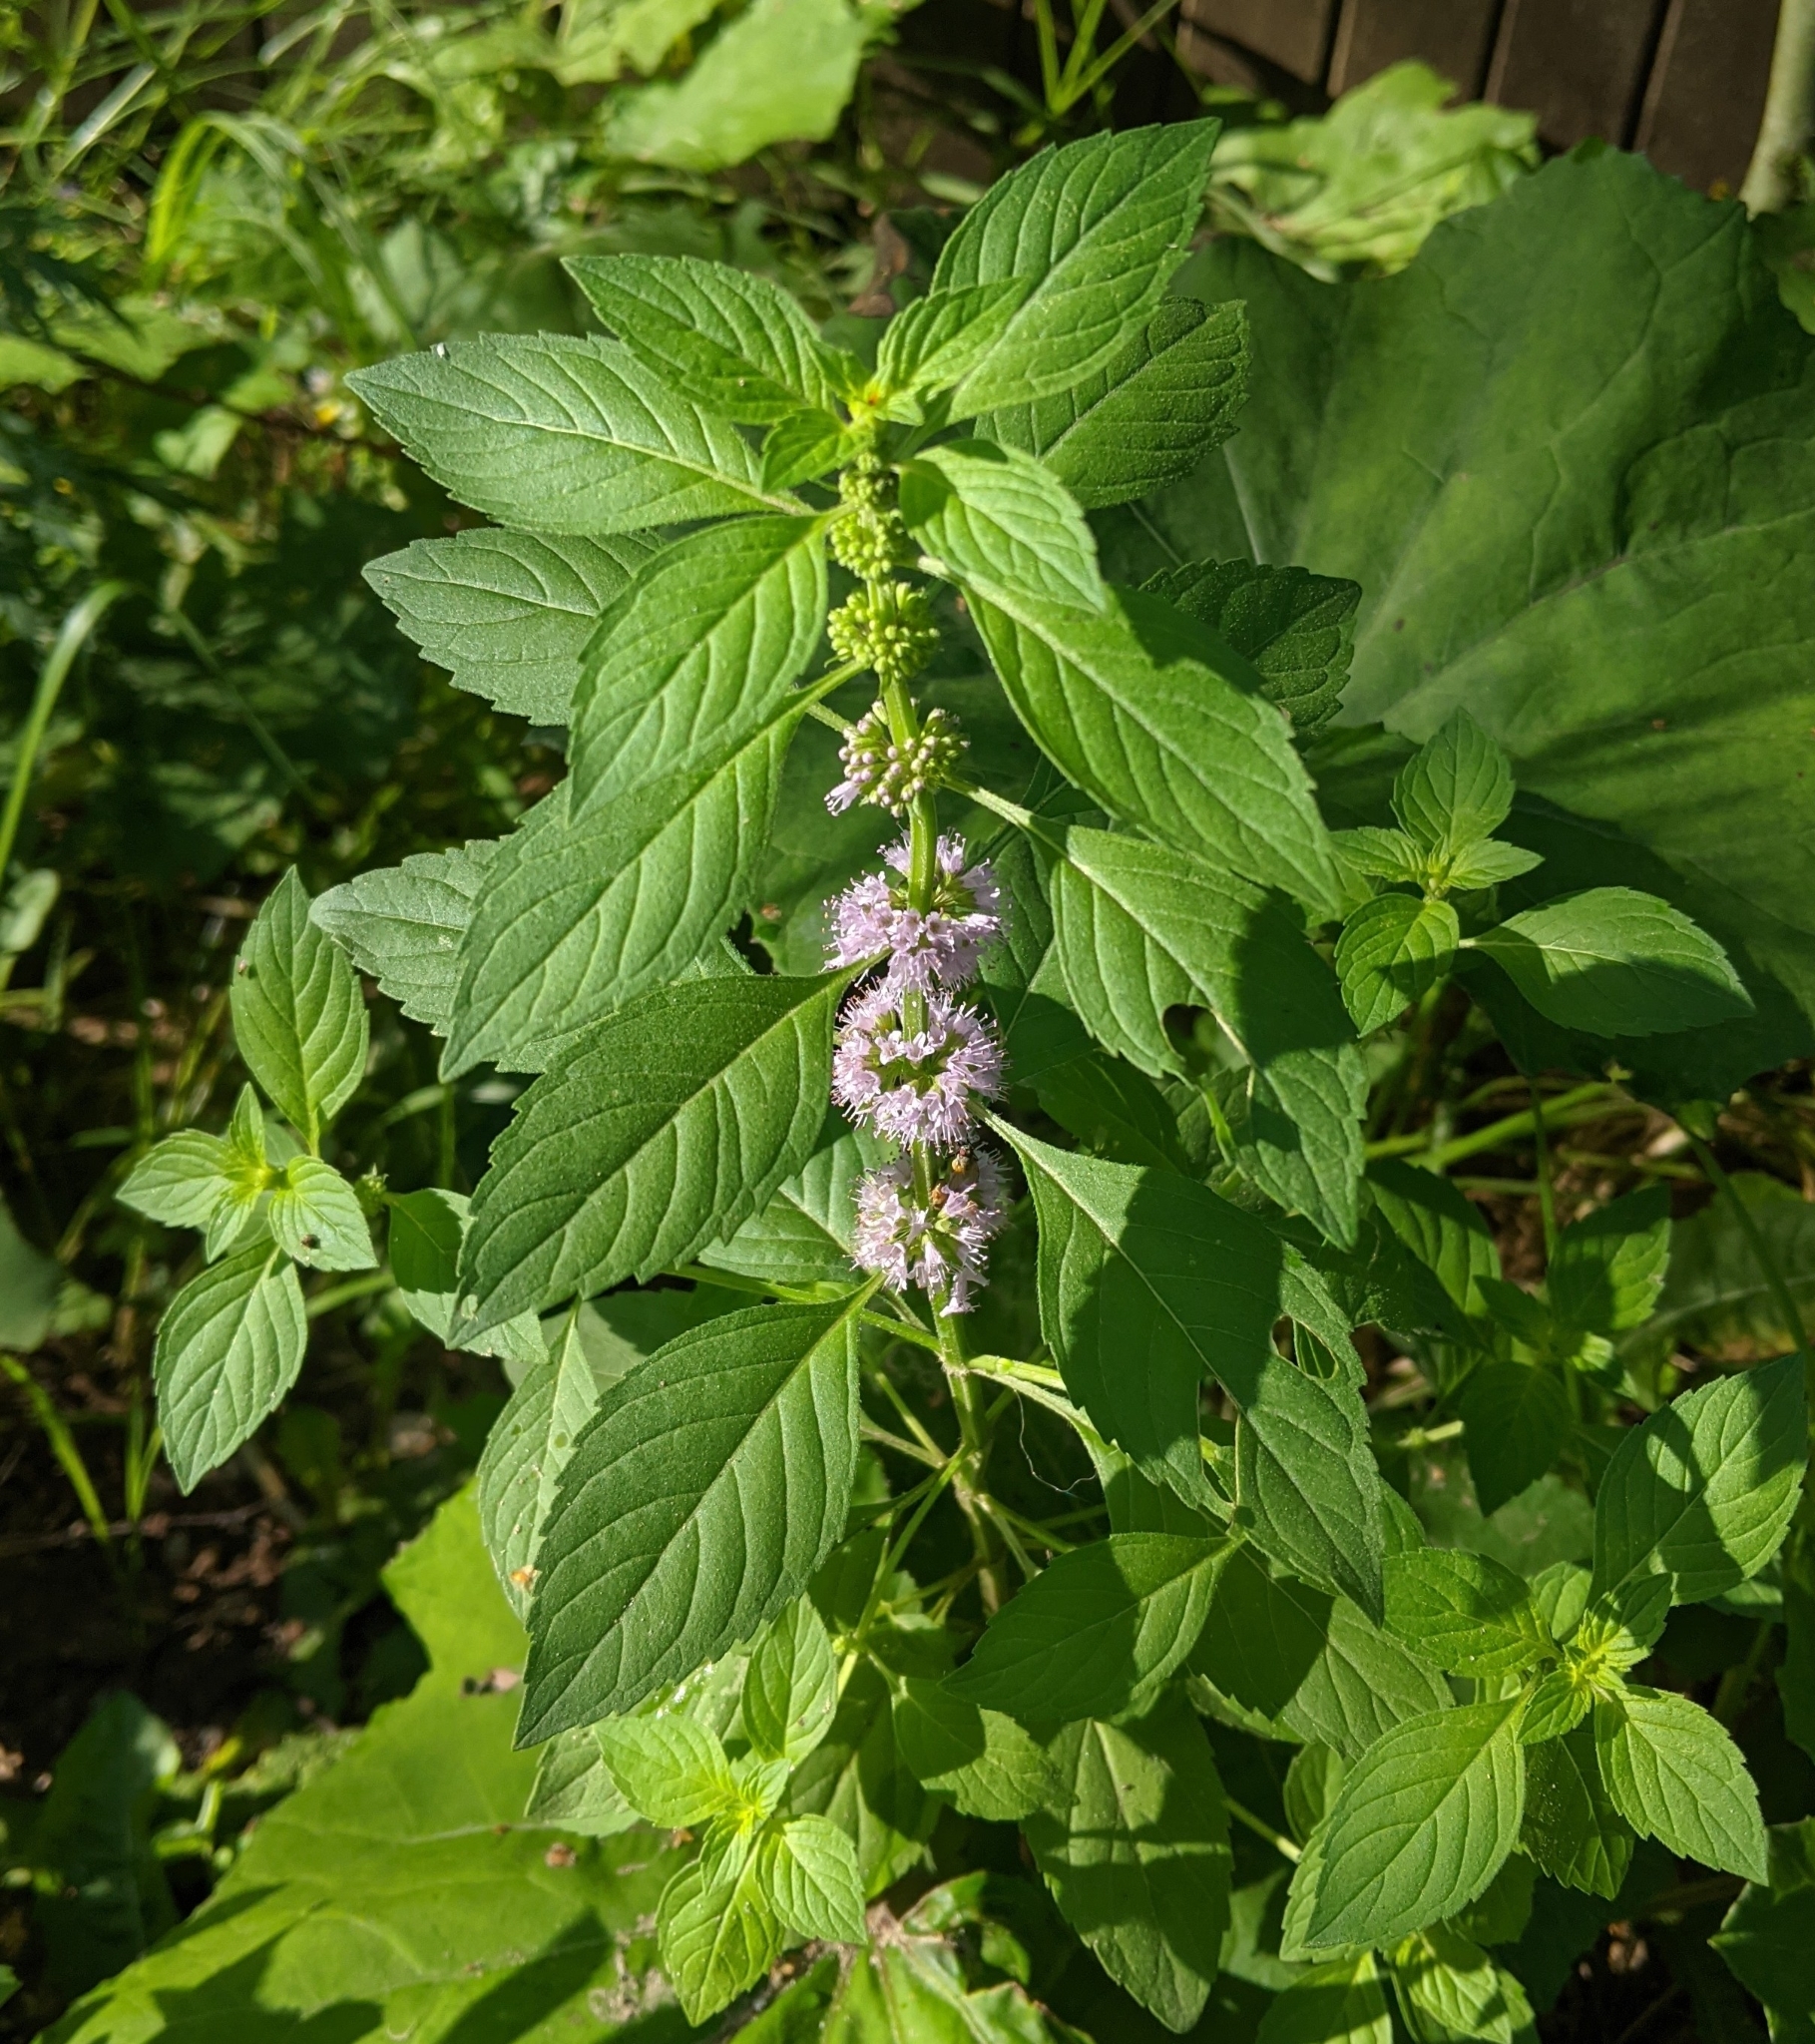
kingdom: Plantae
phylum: Tracheophyta
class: Magnoliopsida
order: Lamiales
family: Lamiaceae
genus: Mentha
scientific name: Mentha arvensis
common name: Corn mint
